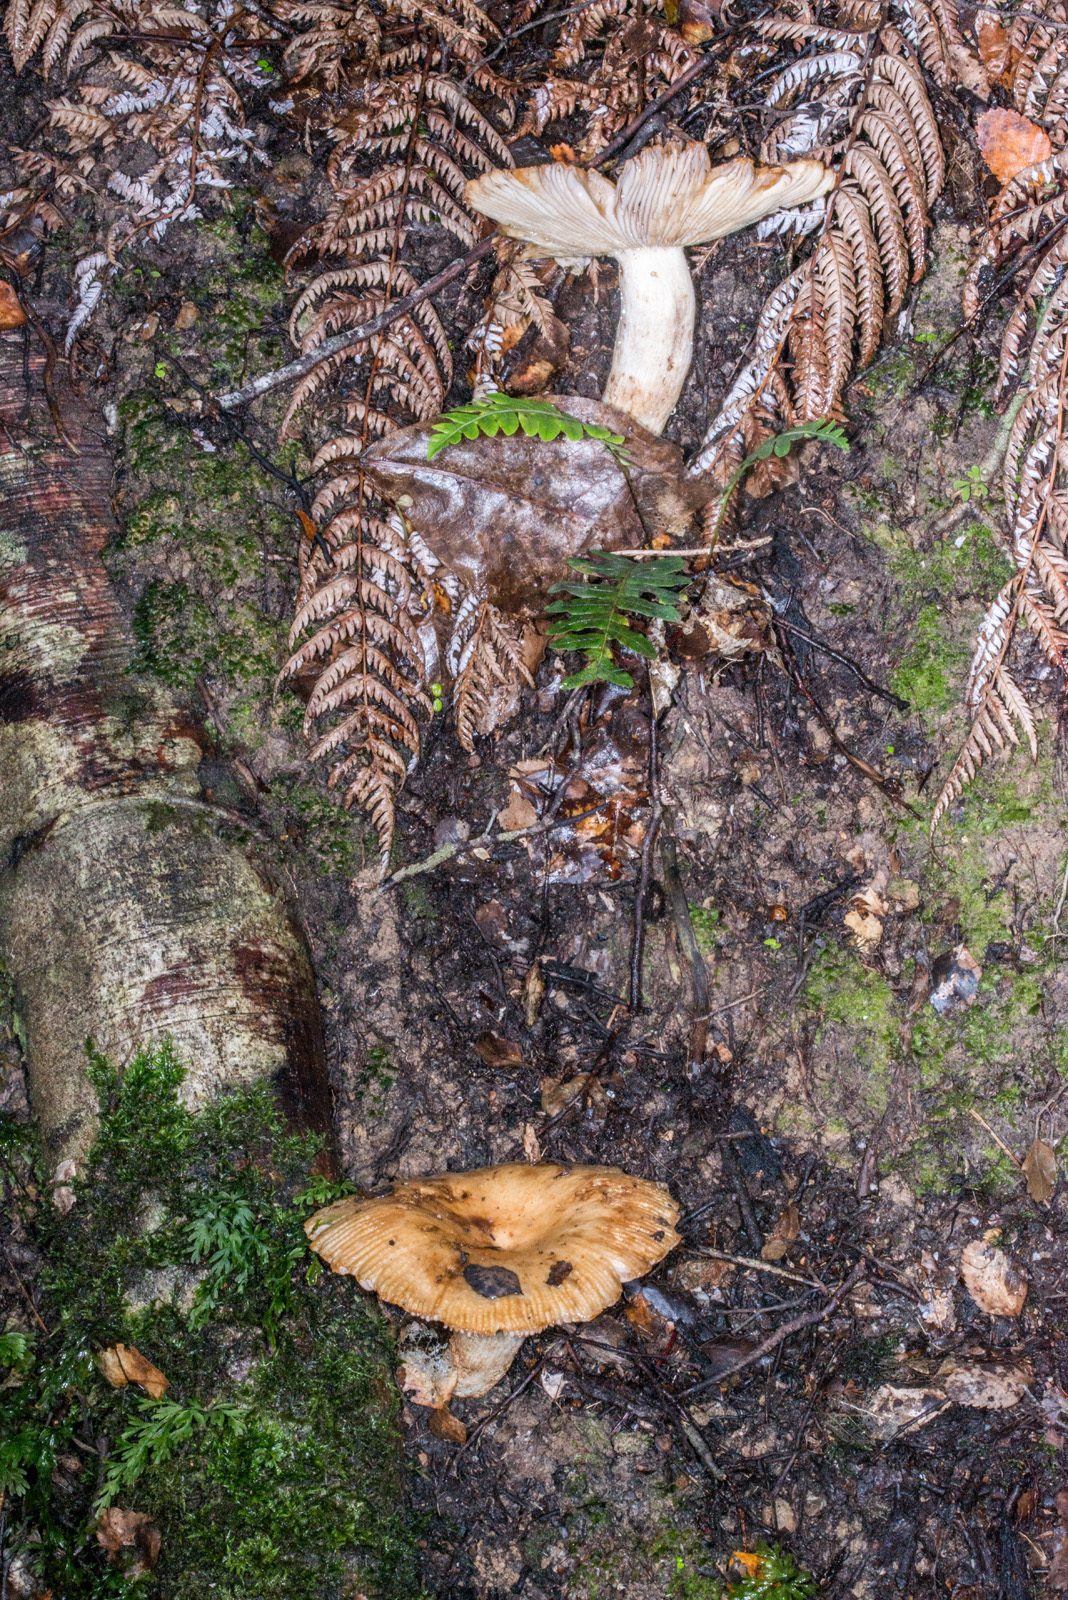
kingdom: Fungi
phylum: Basidiomycota
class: Agaricomycetes
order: Russulales
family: Russulaceae
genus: Russula
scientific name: Russula novae-zelandiae
